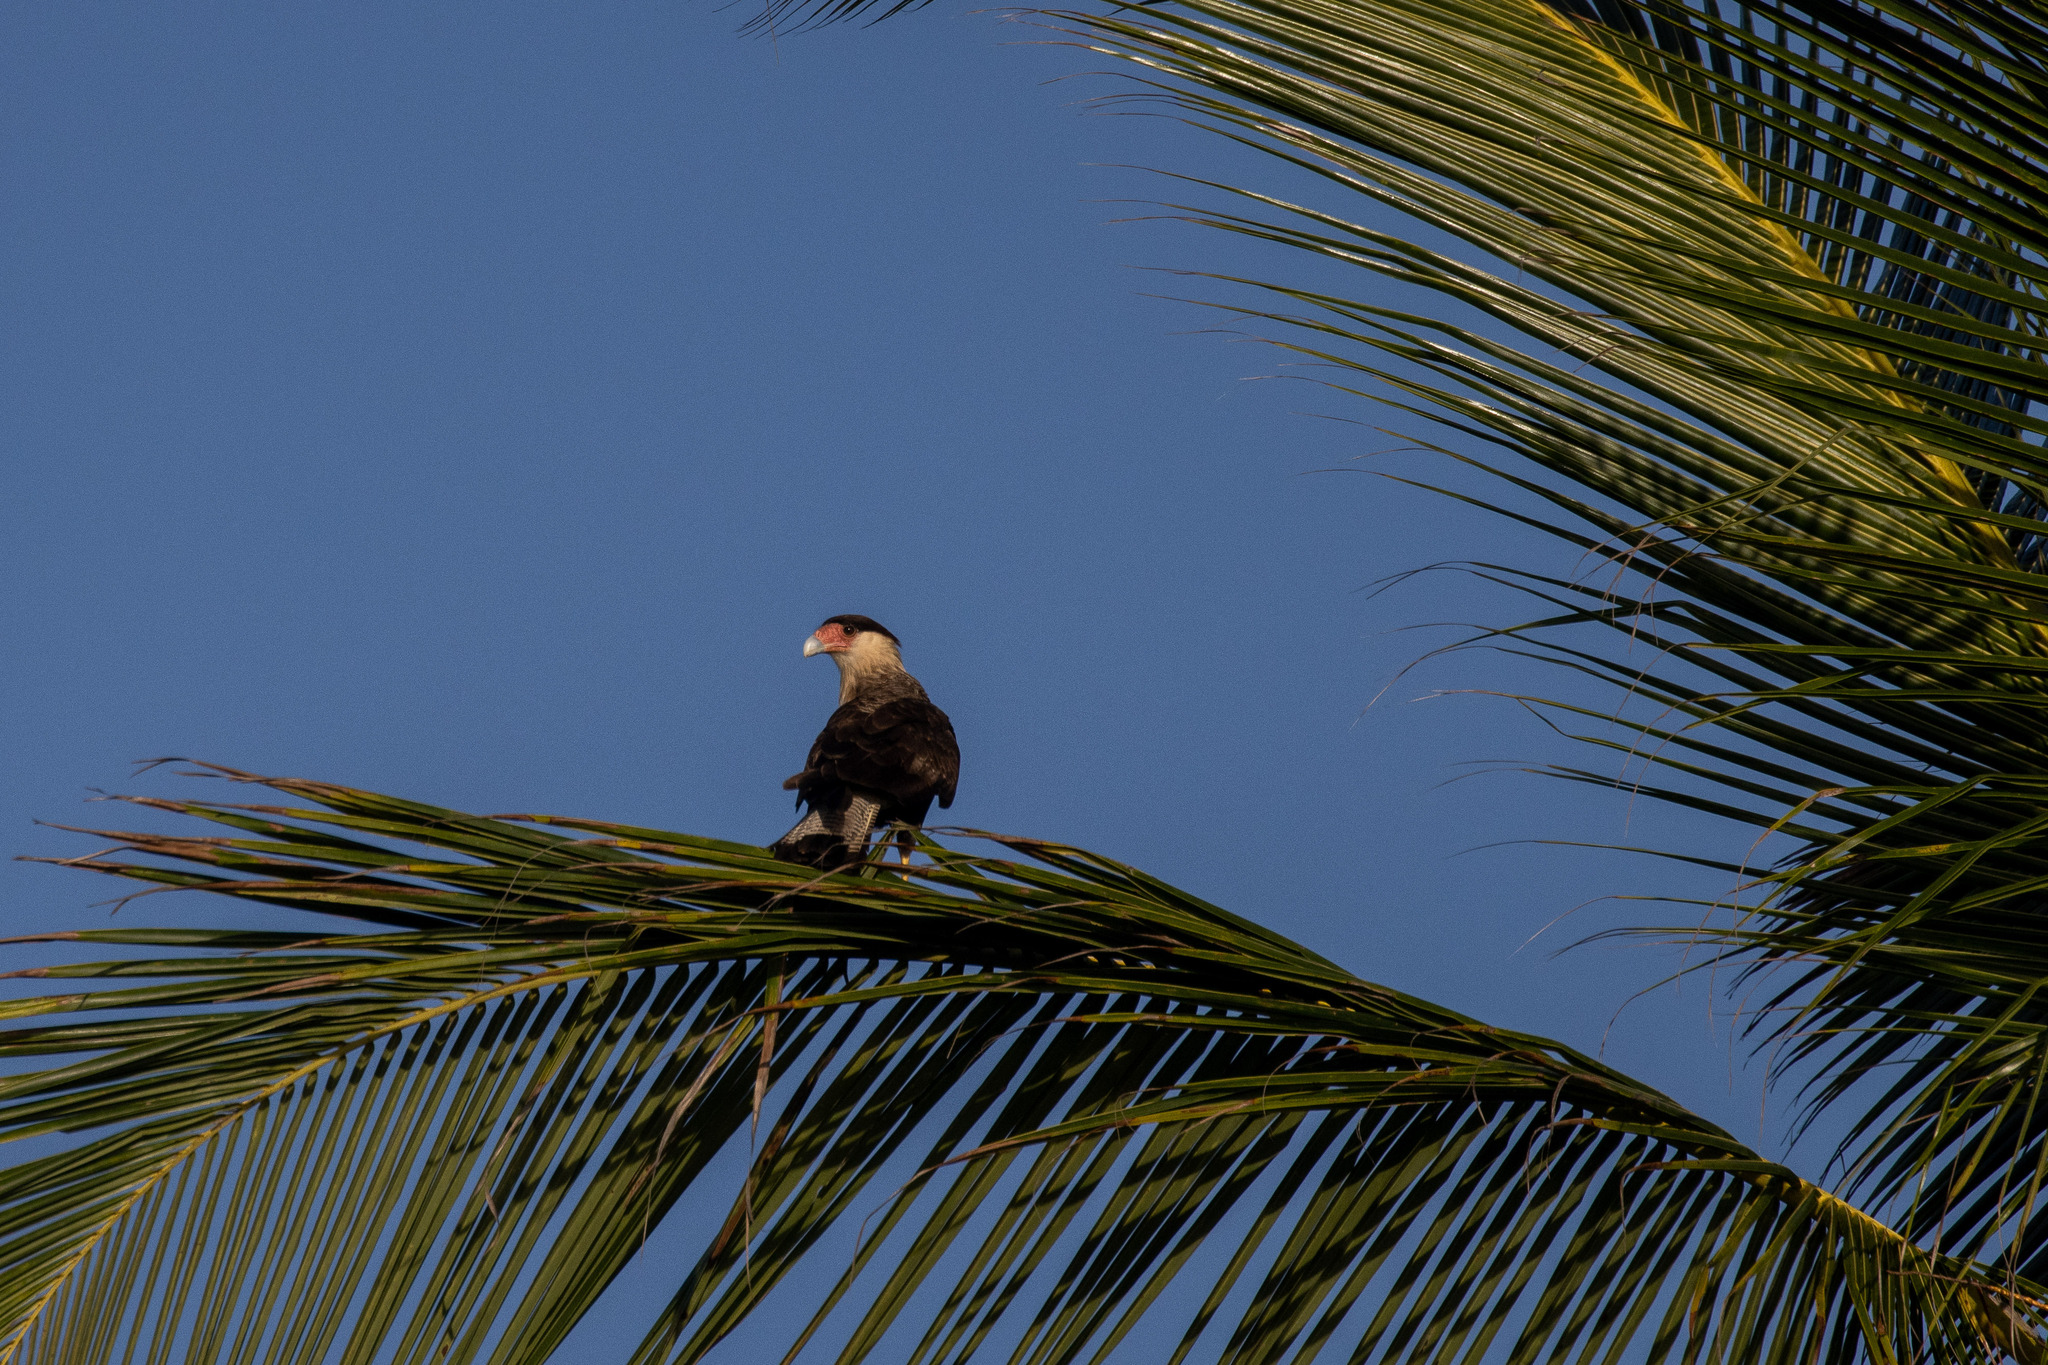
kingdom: Animalia
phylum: Chordata
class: Aves
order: Falconiformes
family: Falconidae
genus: Caracara
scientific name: Caracara plancus
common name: Southern caracara
